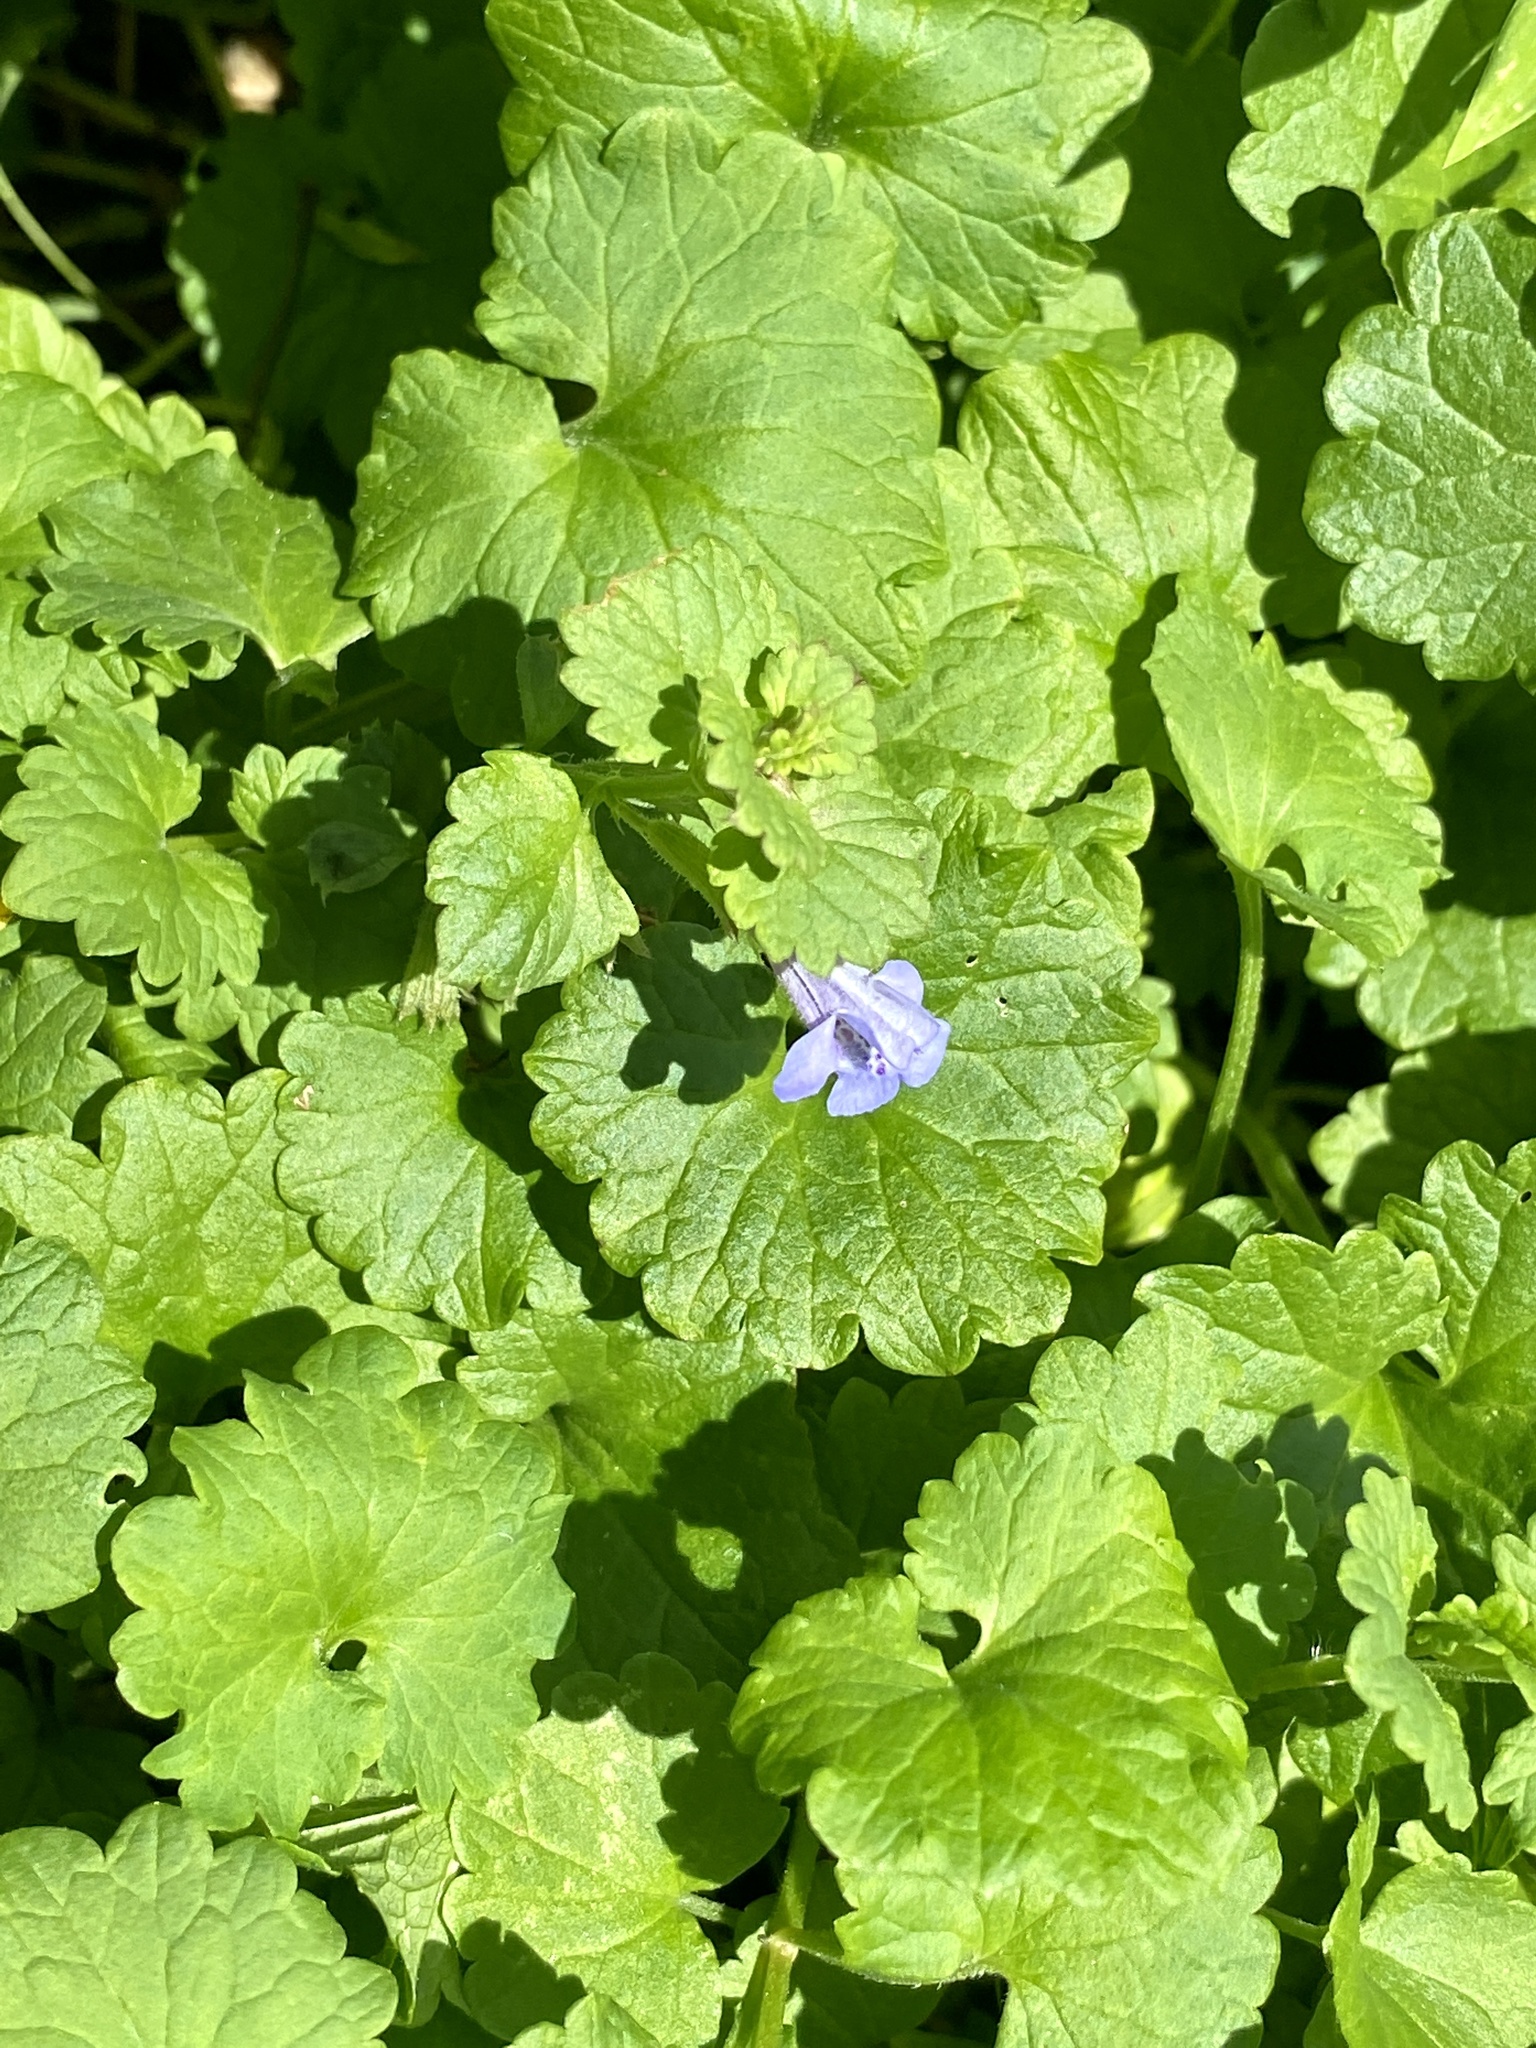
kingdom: Plantae
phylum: Tracheophyta
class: Magnoliopsida
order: Lamiales
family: Lamiaceae
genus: Glechoma
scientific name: Glechoma hederacea
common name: Ground ivy
